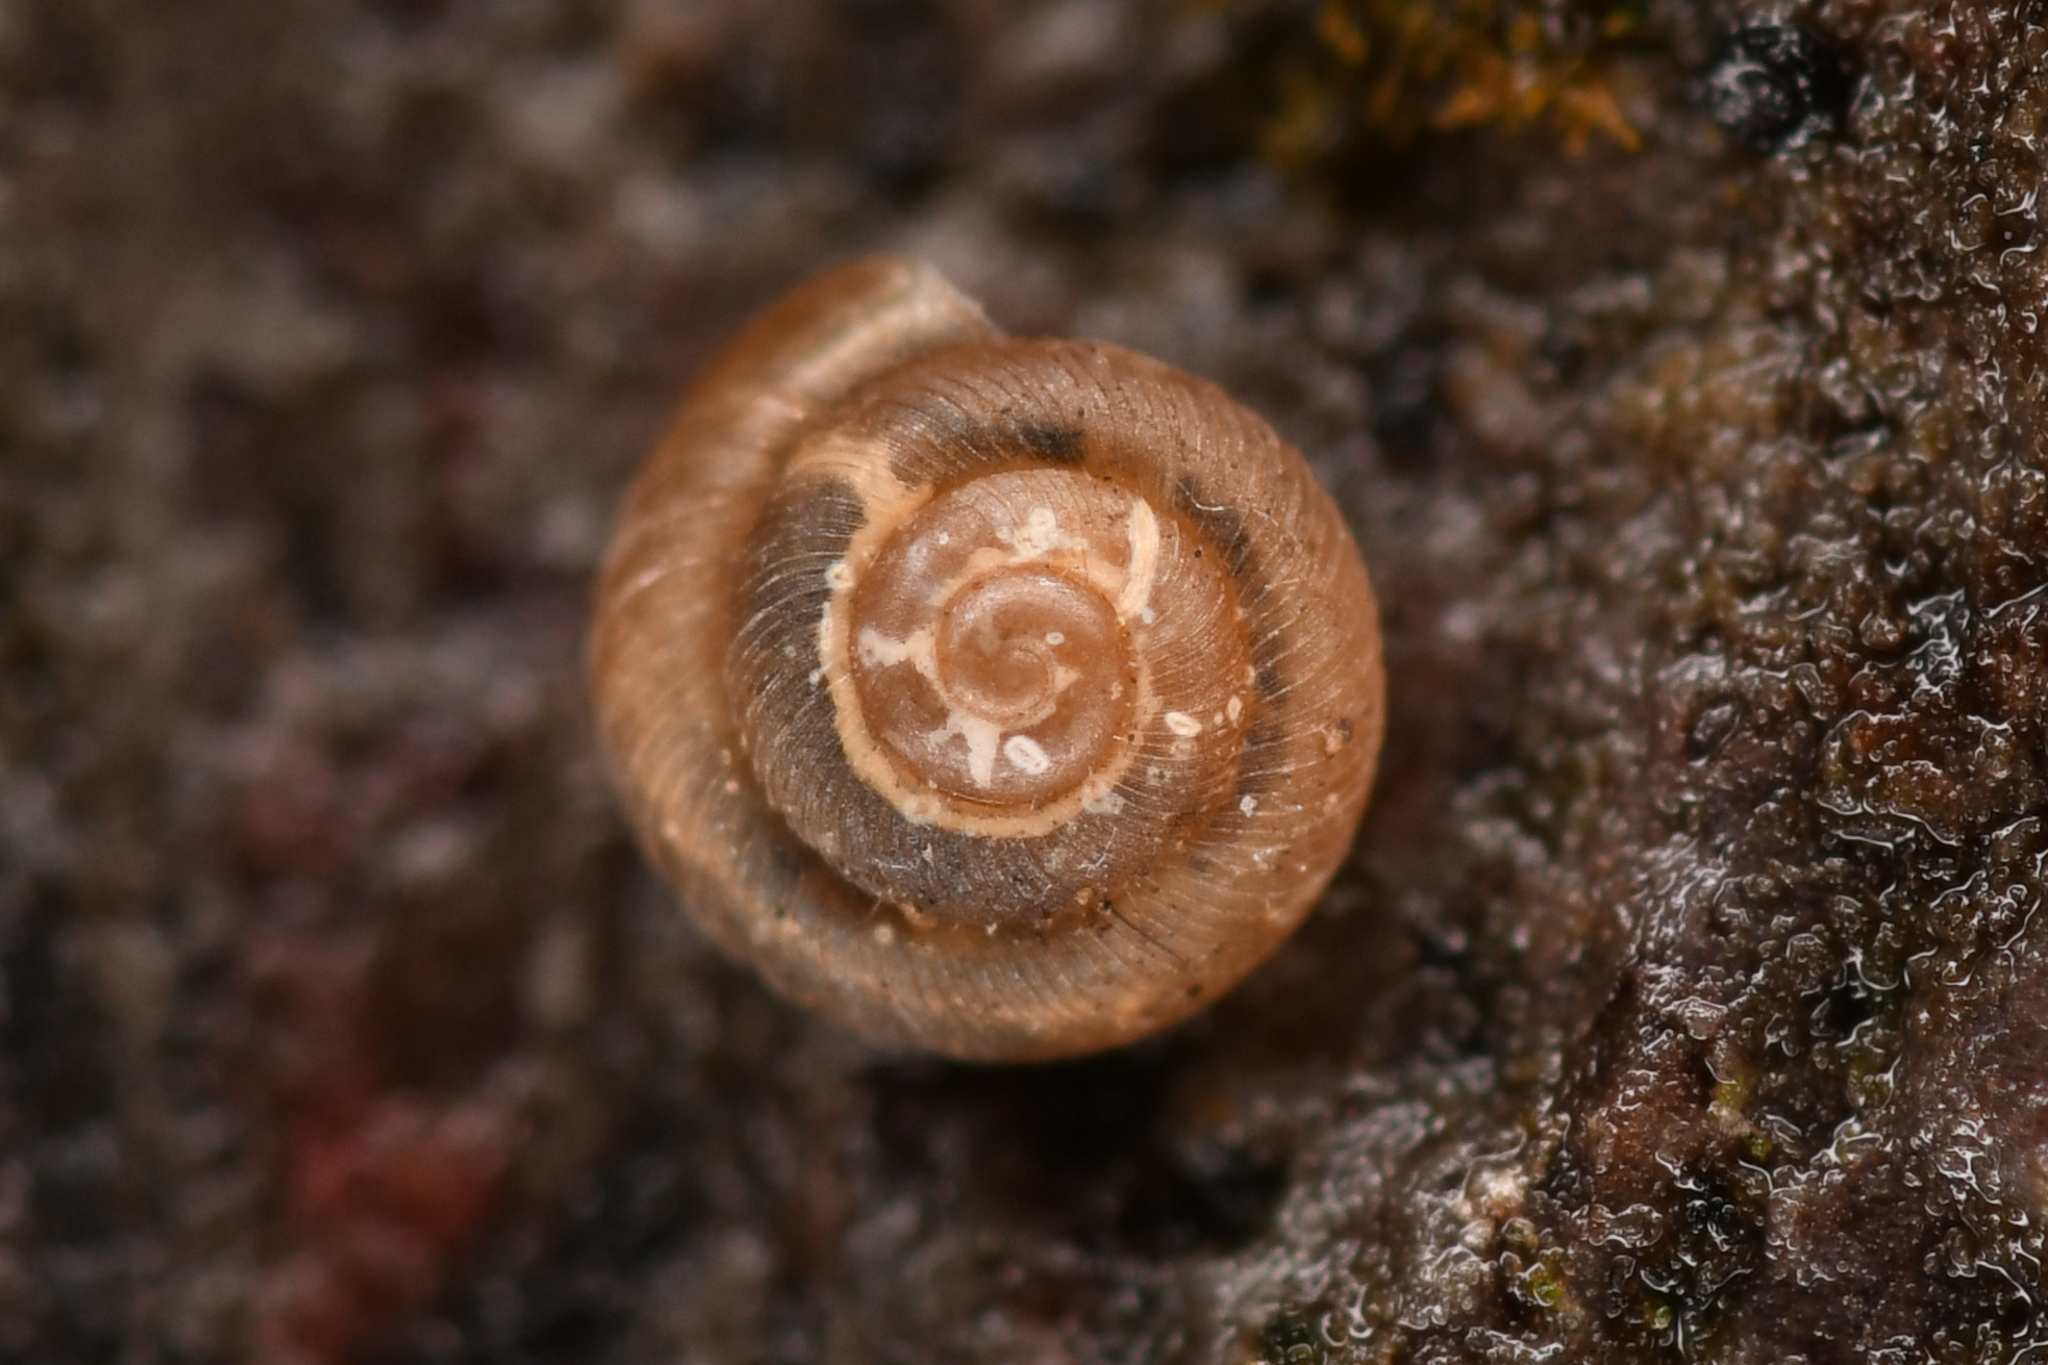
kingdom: Animalia
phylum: Mollusca
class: Gastropoda
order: Stylommatophora
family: Punctidae
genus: Punctum
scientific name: Punctum californicum
